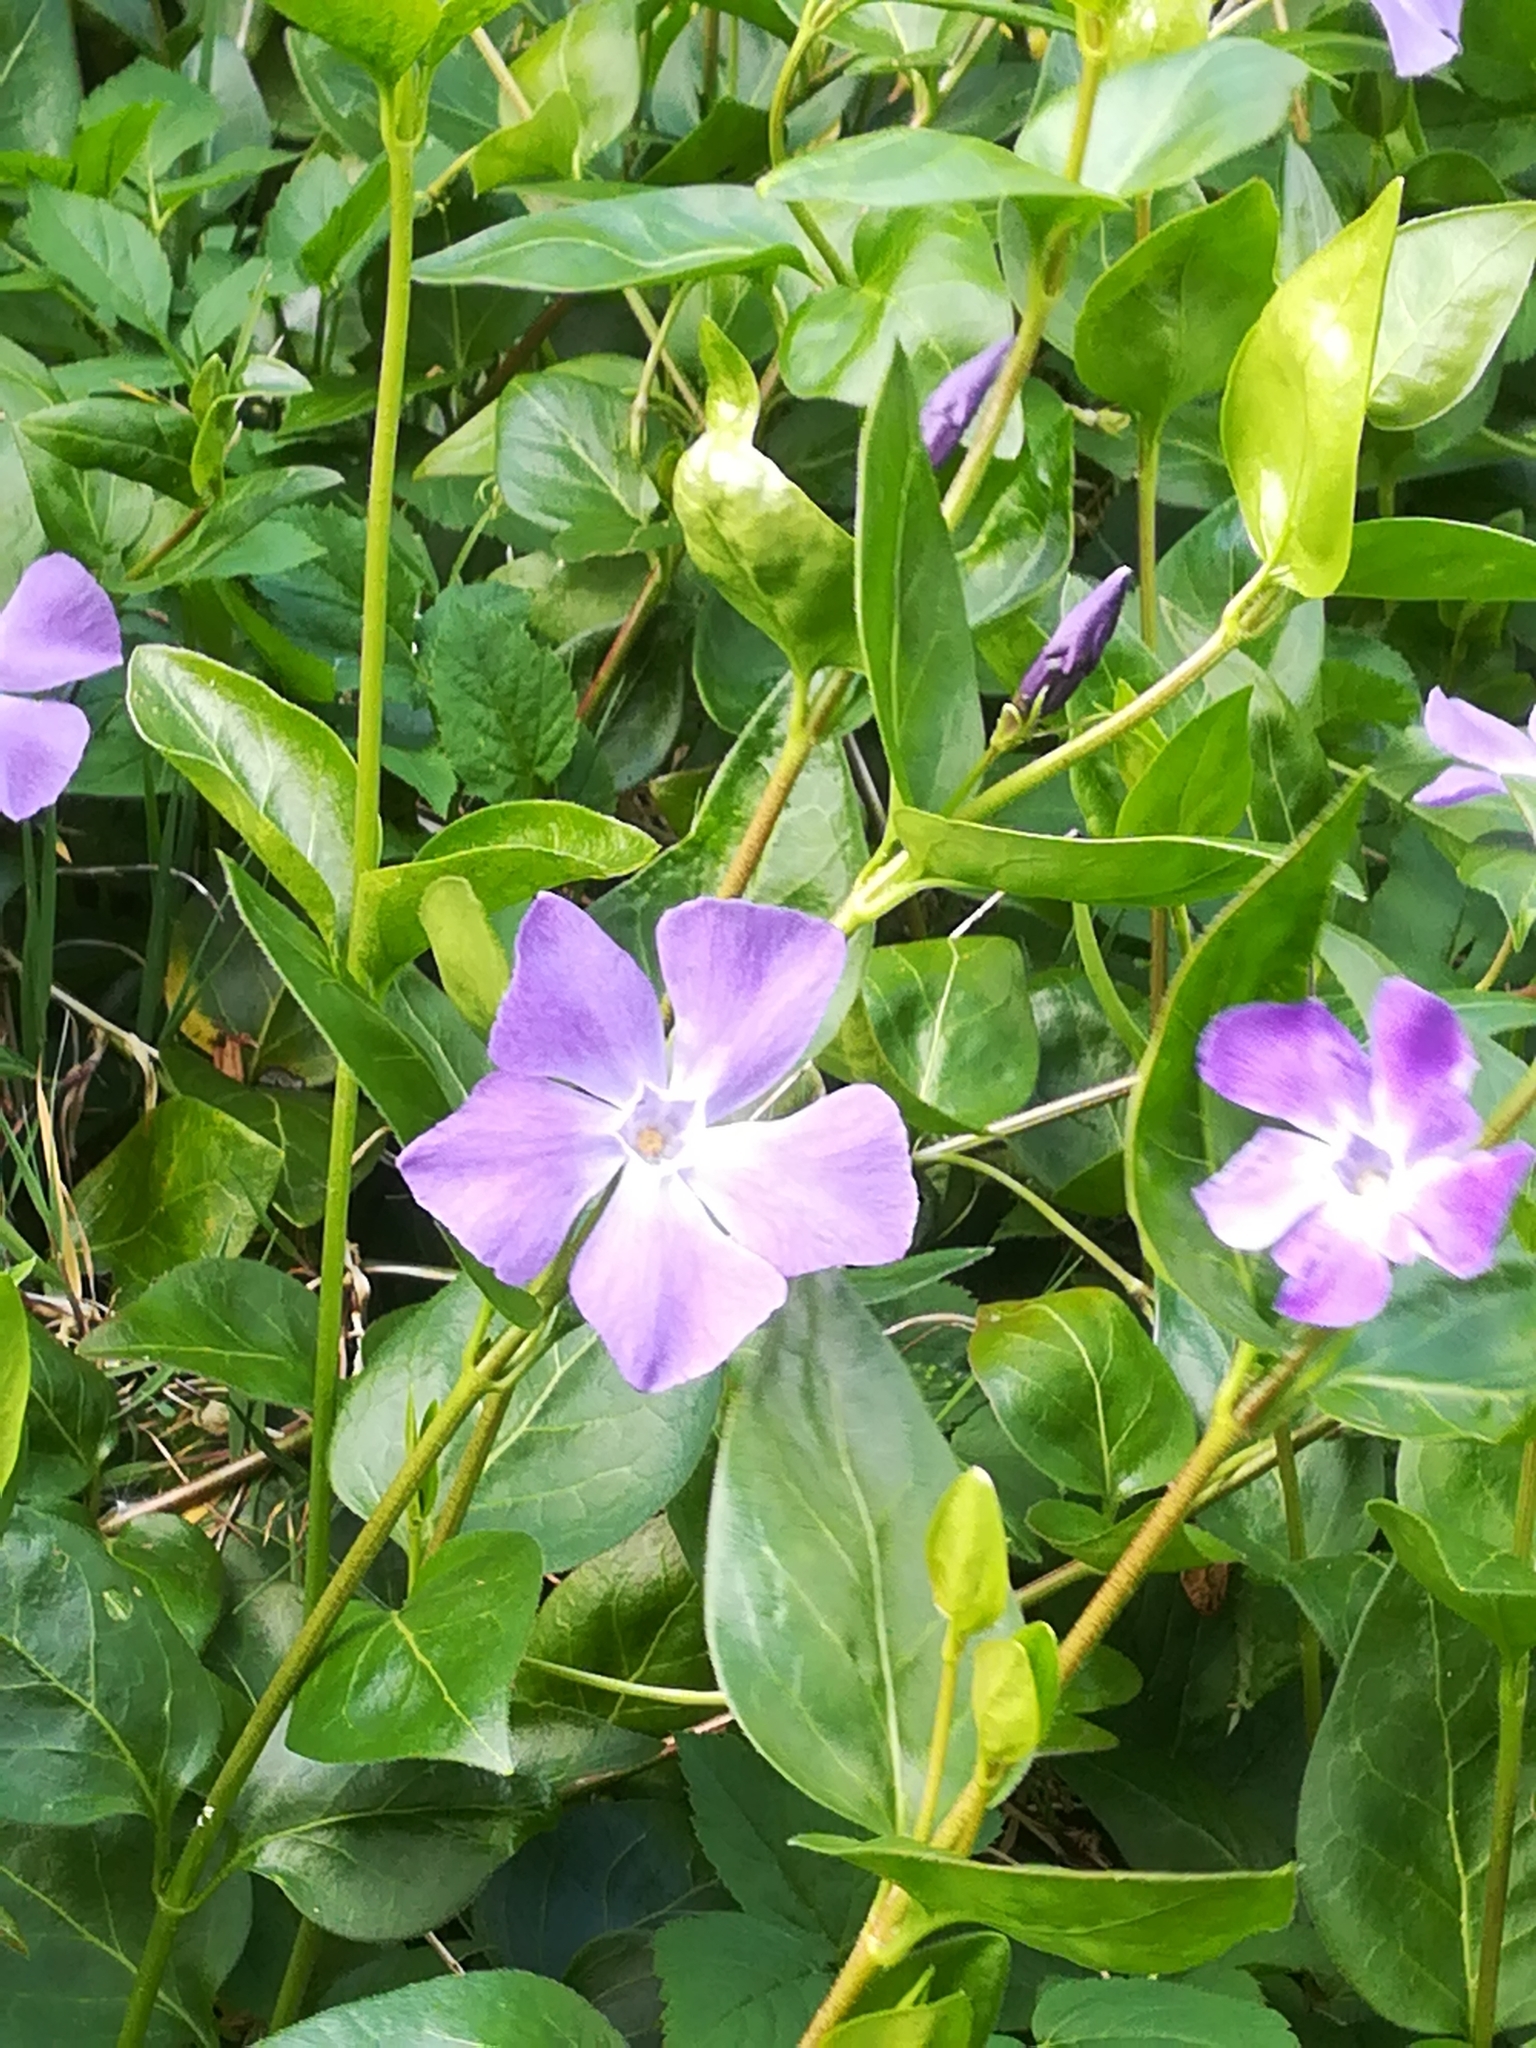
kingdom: Plantae
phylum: Tracheophyta
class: Magnoliopsida
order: Gentianales
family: Apocynaceae
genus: Vinca
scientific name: Vinca major
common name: Greater periwinkle
